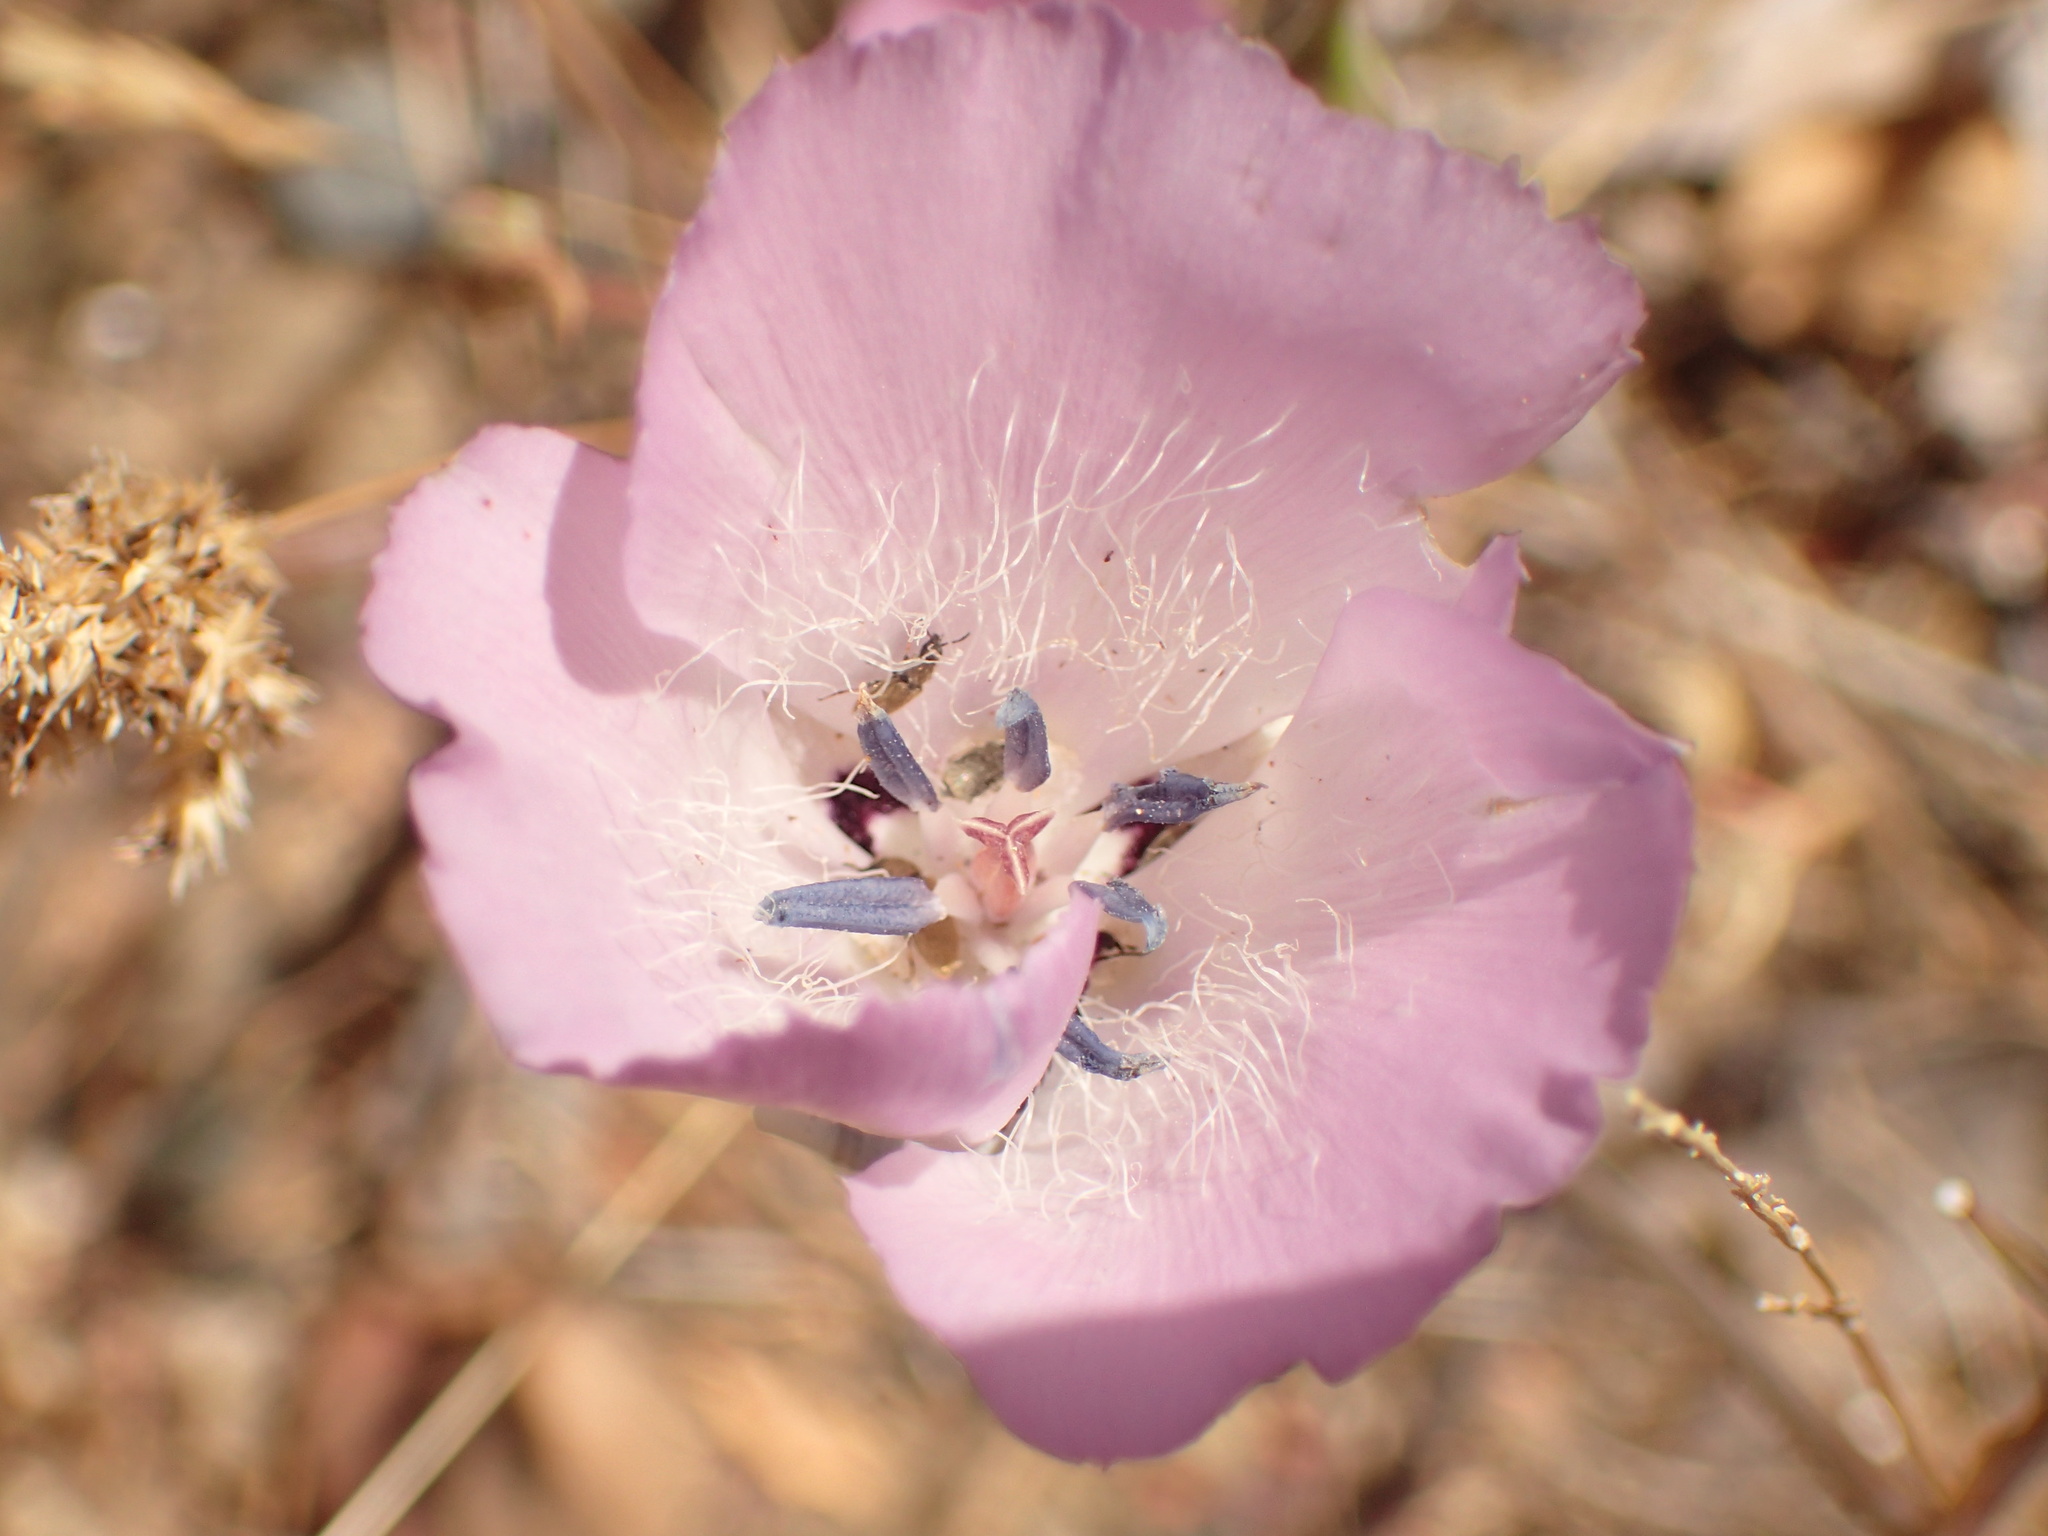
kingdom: Plantae
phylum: Tracheophyta
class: Liliopsida
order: Liliales
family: Liliaceae
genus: Calochortus
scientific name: Calochortus splendens
